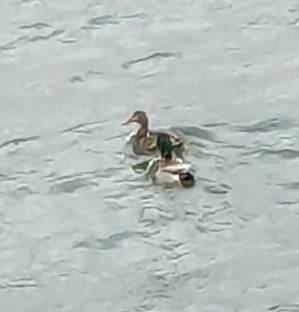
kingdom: Animalia
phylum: Chordata
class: Aves
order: Anseriformes
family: Anatidae
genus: Anas
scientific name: Anas platyrhynchos
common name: Mallard
